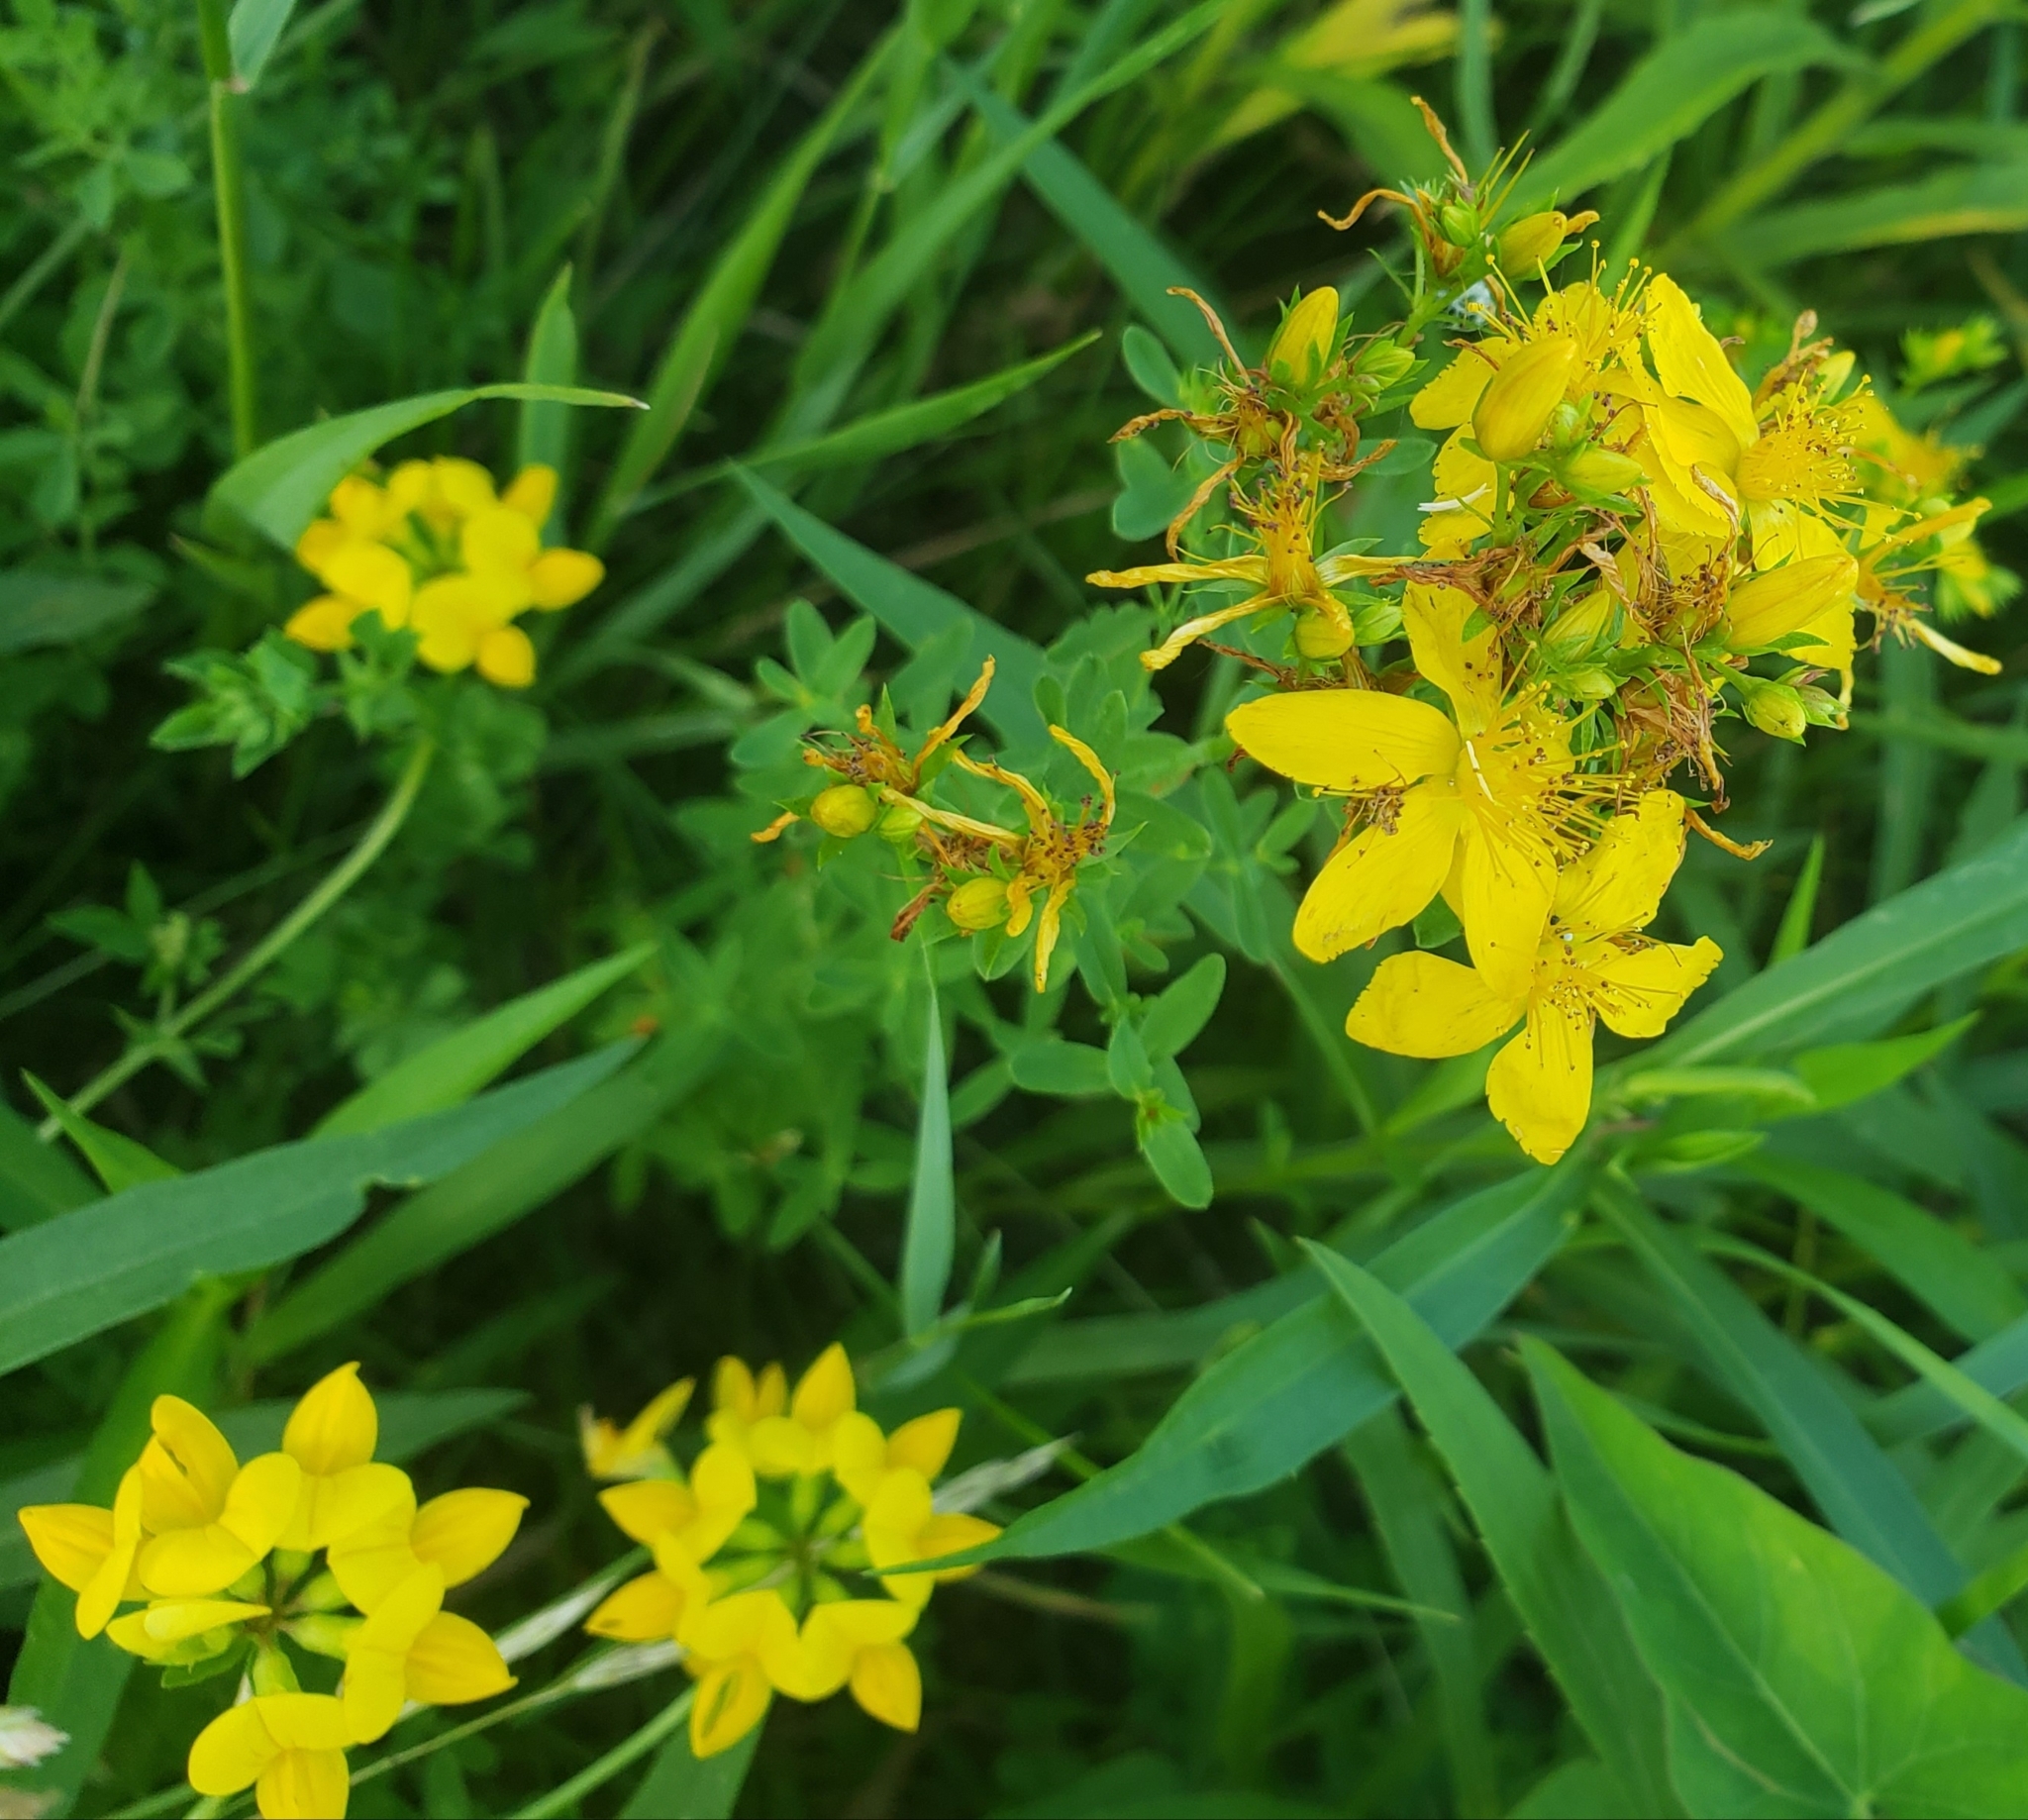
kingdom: Plantae
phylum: Tracheophyta
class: Magnoliopsida
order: Malpighiales
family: Hypericaceae
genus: Hypericum
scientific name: Hypericum perforatum
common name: Common st. johnswort
